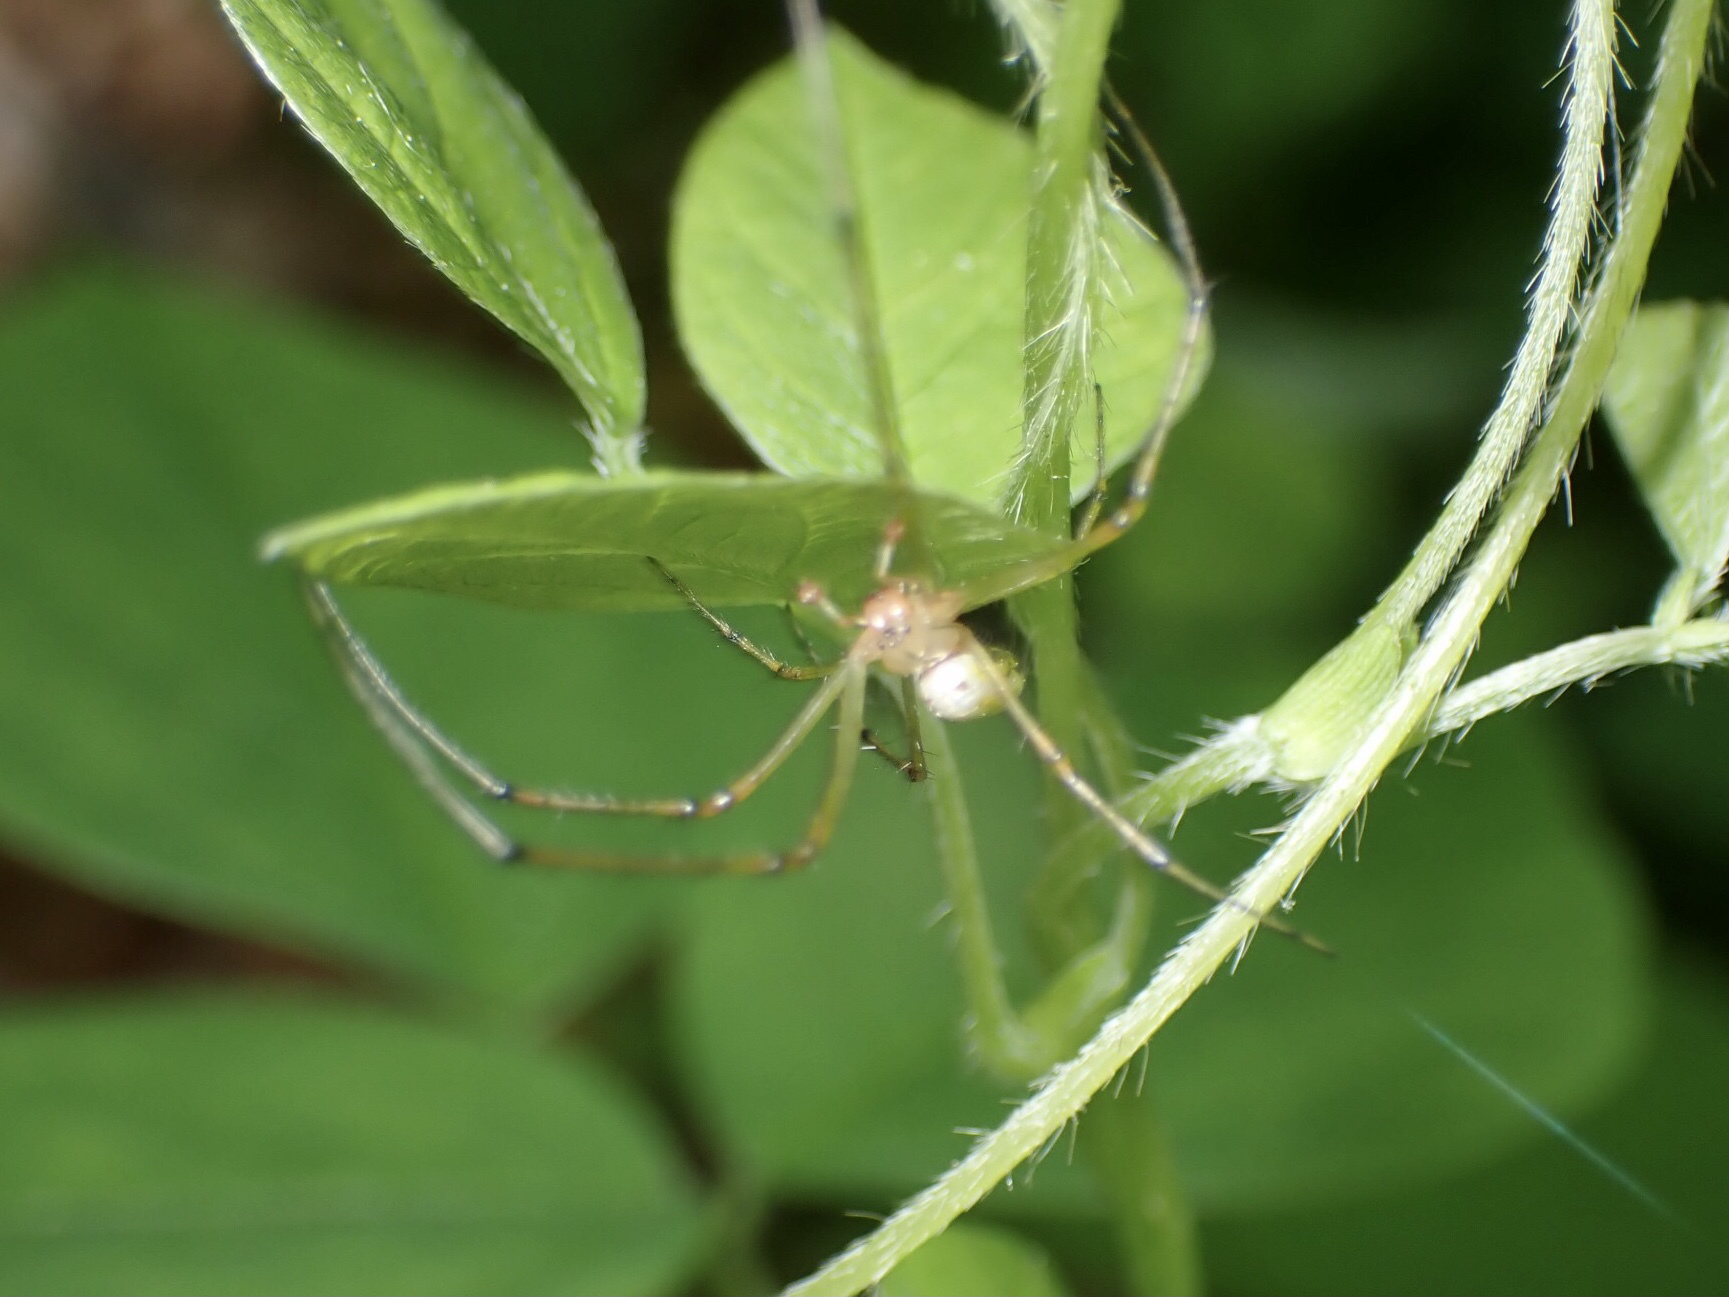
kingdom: Animalia
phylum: Arthropoda
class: Arachnida
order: Araneae
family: Tetragnathidae
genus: Leucauge
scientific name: Leucauge venusta
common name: Longjawed orb weavers
